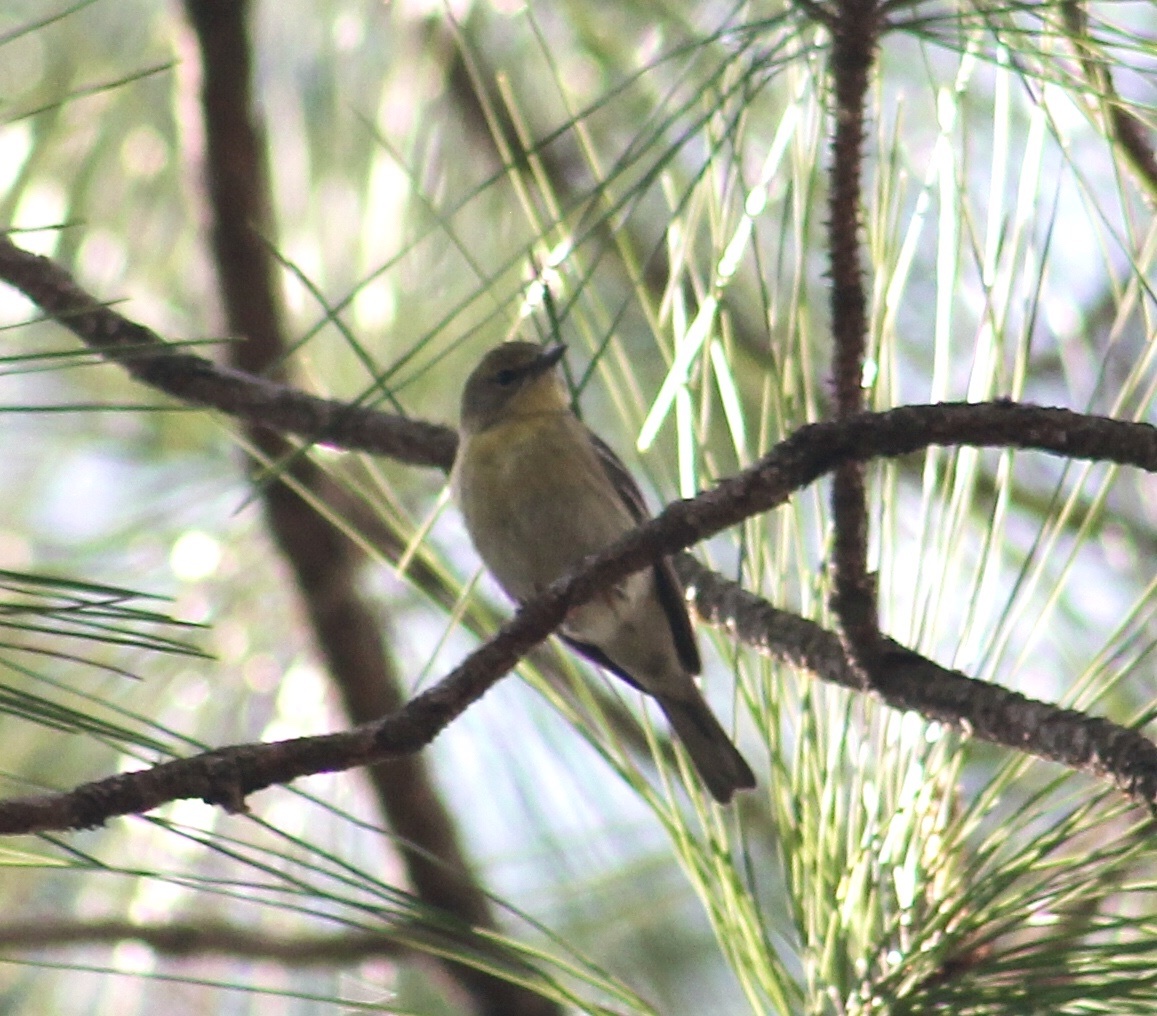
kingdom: Animalia
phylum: Chordata
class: Aves
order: Passeriformes
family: Parulidae
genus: Setophaga
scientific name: Setophaga pinus
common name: Pine warbler
